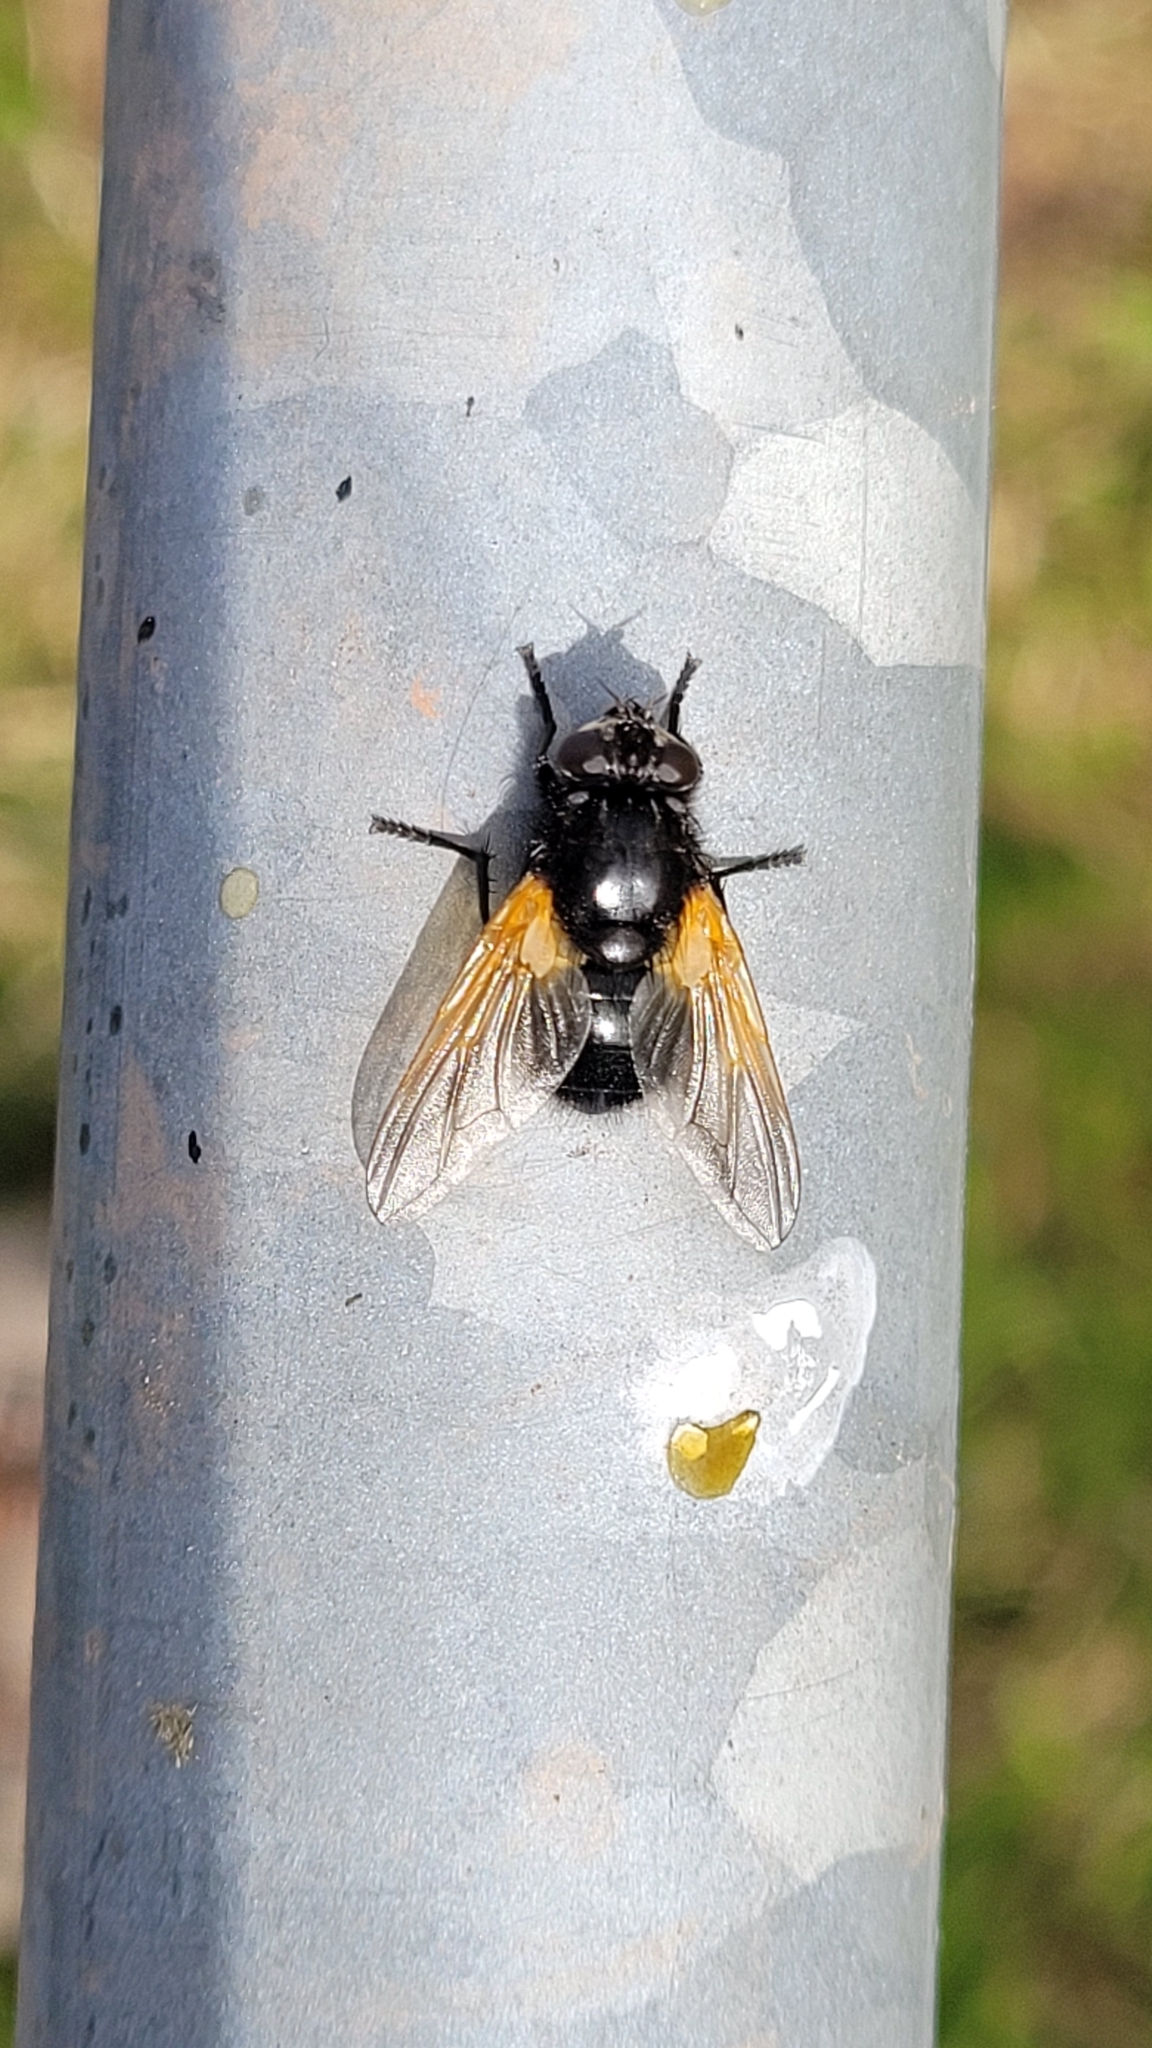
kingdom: Animalia
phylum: Arthropoda
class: Insecta
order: Diptera
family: Muscidae
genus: Mesembrina
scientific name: Mesembrina meridiana
